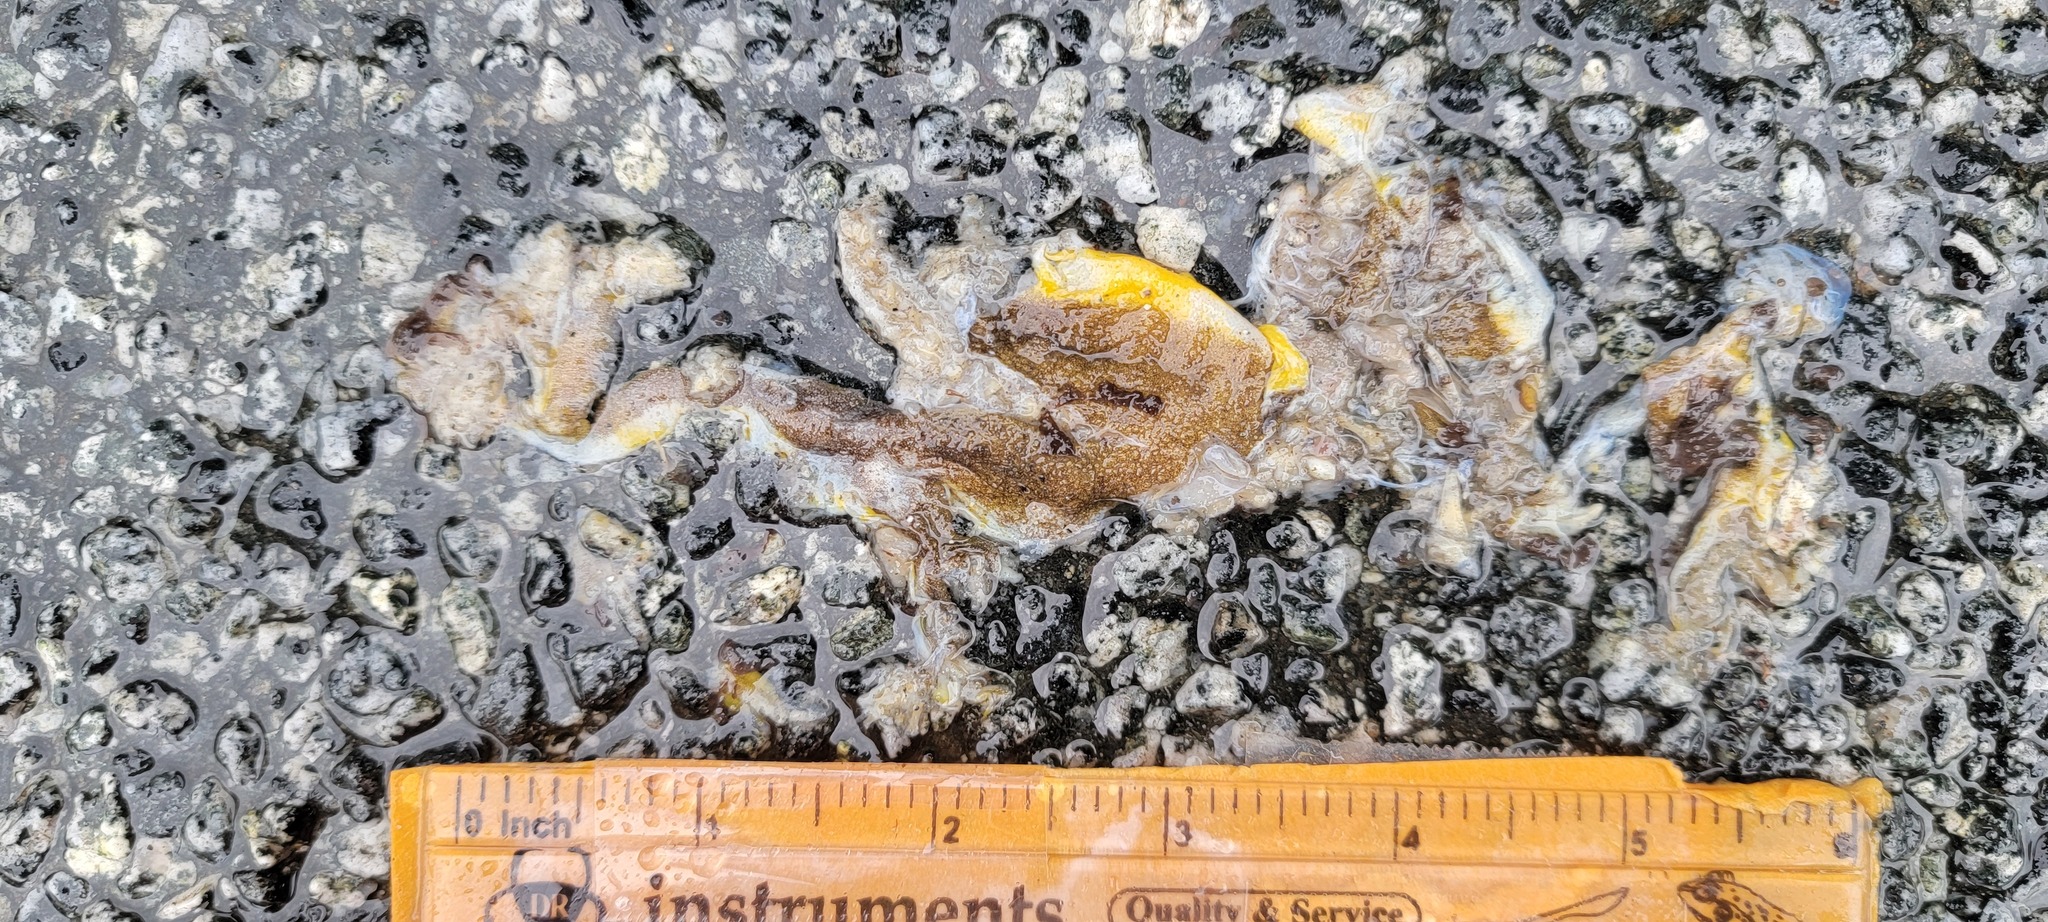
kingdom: Animalia
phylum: Chordata
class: Amphibia
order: Caudata
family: Salamandridae
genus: Taricha
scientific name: Taricha
